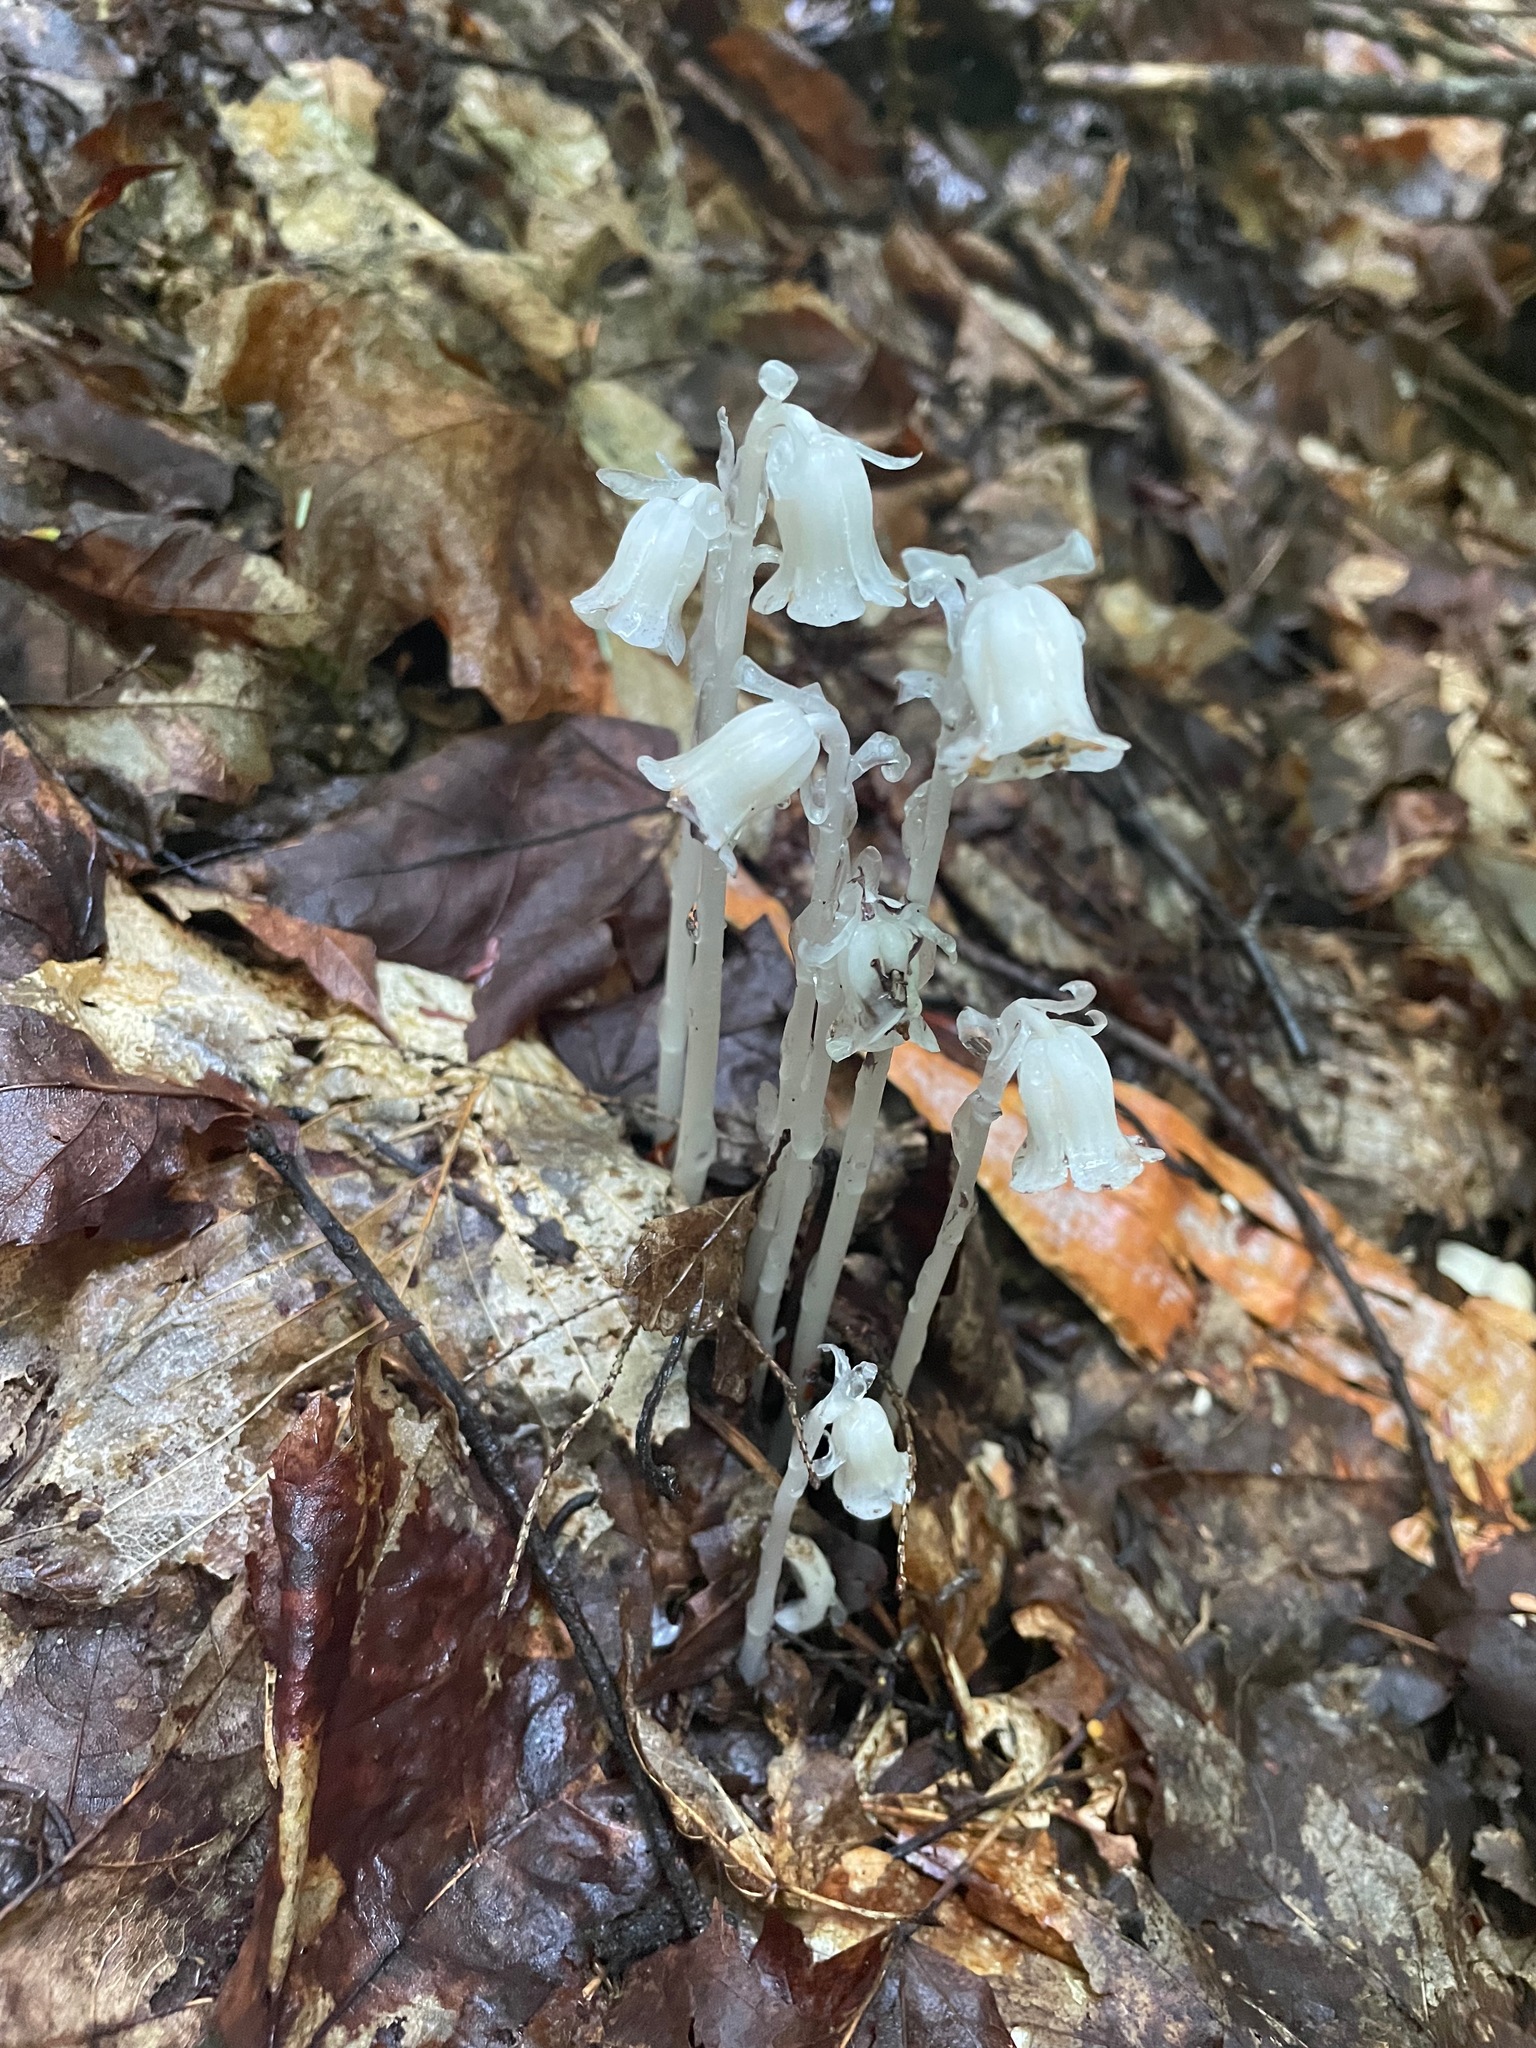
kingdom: Plantae
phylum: Tracheophyta
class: Magnoliopsida
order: Ericales
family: Ericaceae
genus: Monotropa
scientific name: Monotropa uniflora
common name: Convulsion root
